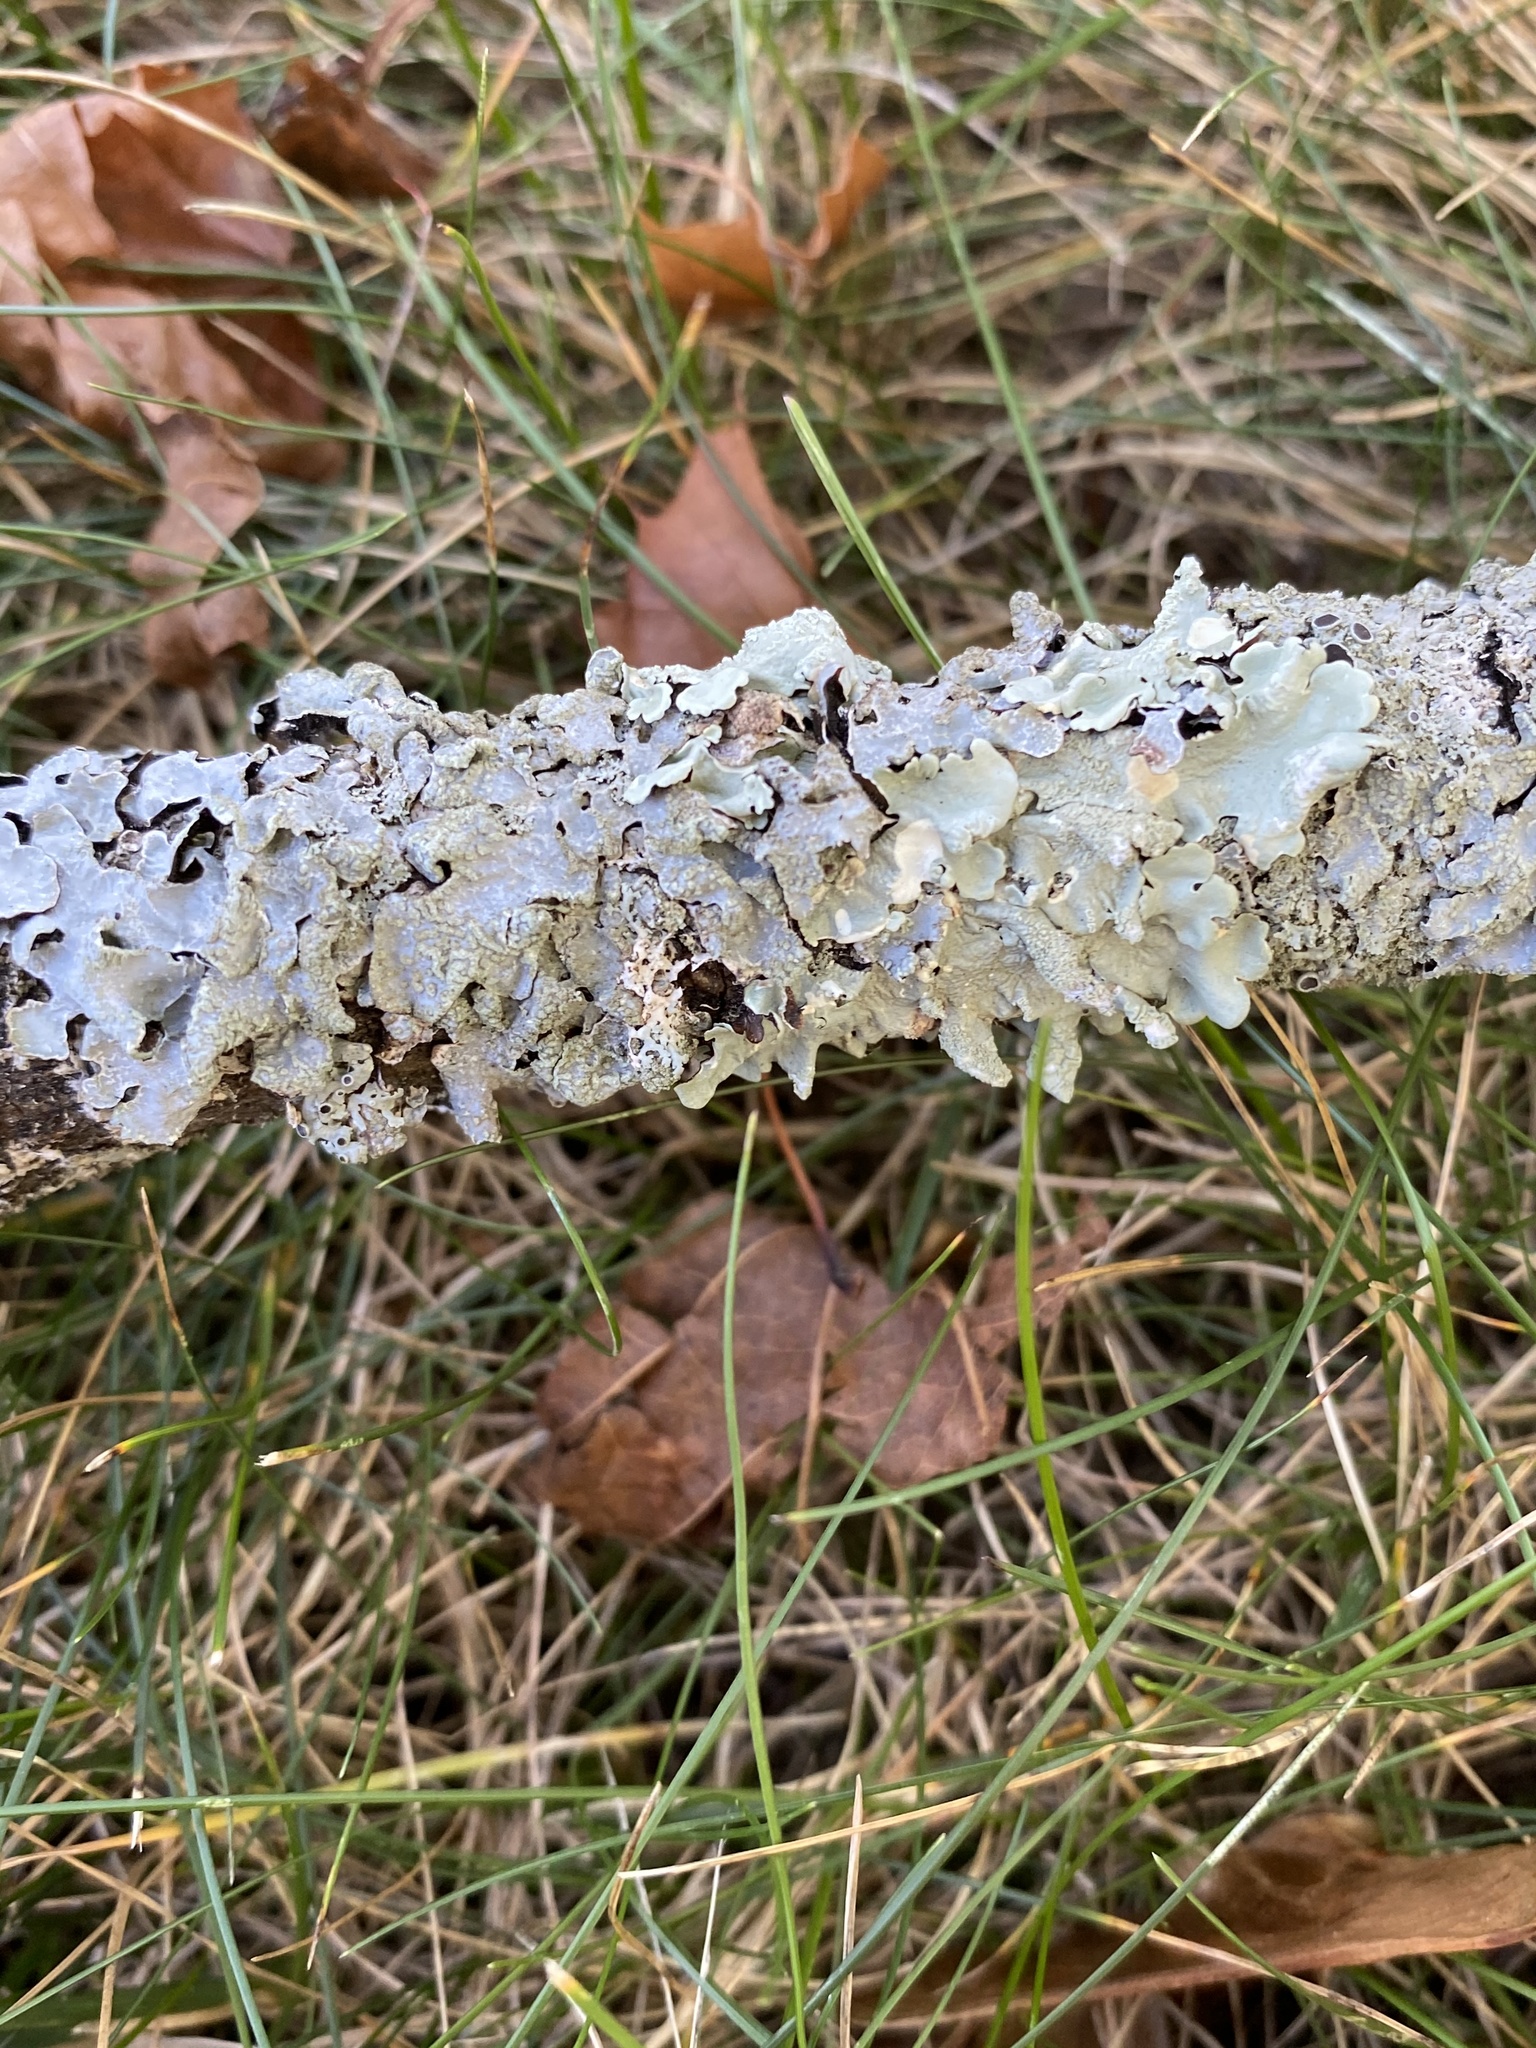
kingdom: Fungi
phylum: Ascomycota
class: Lecanoromycetes
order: Lecanorales
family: Parmeliaceae
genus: Flavoparmelia
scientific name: Flavoparmelia caperata
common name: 40-mile per hour lichen
